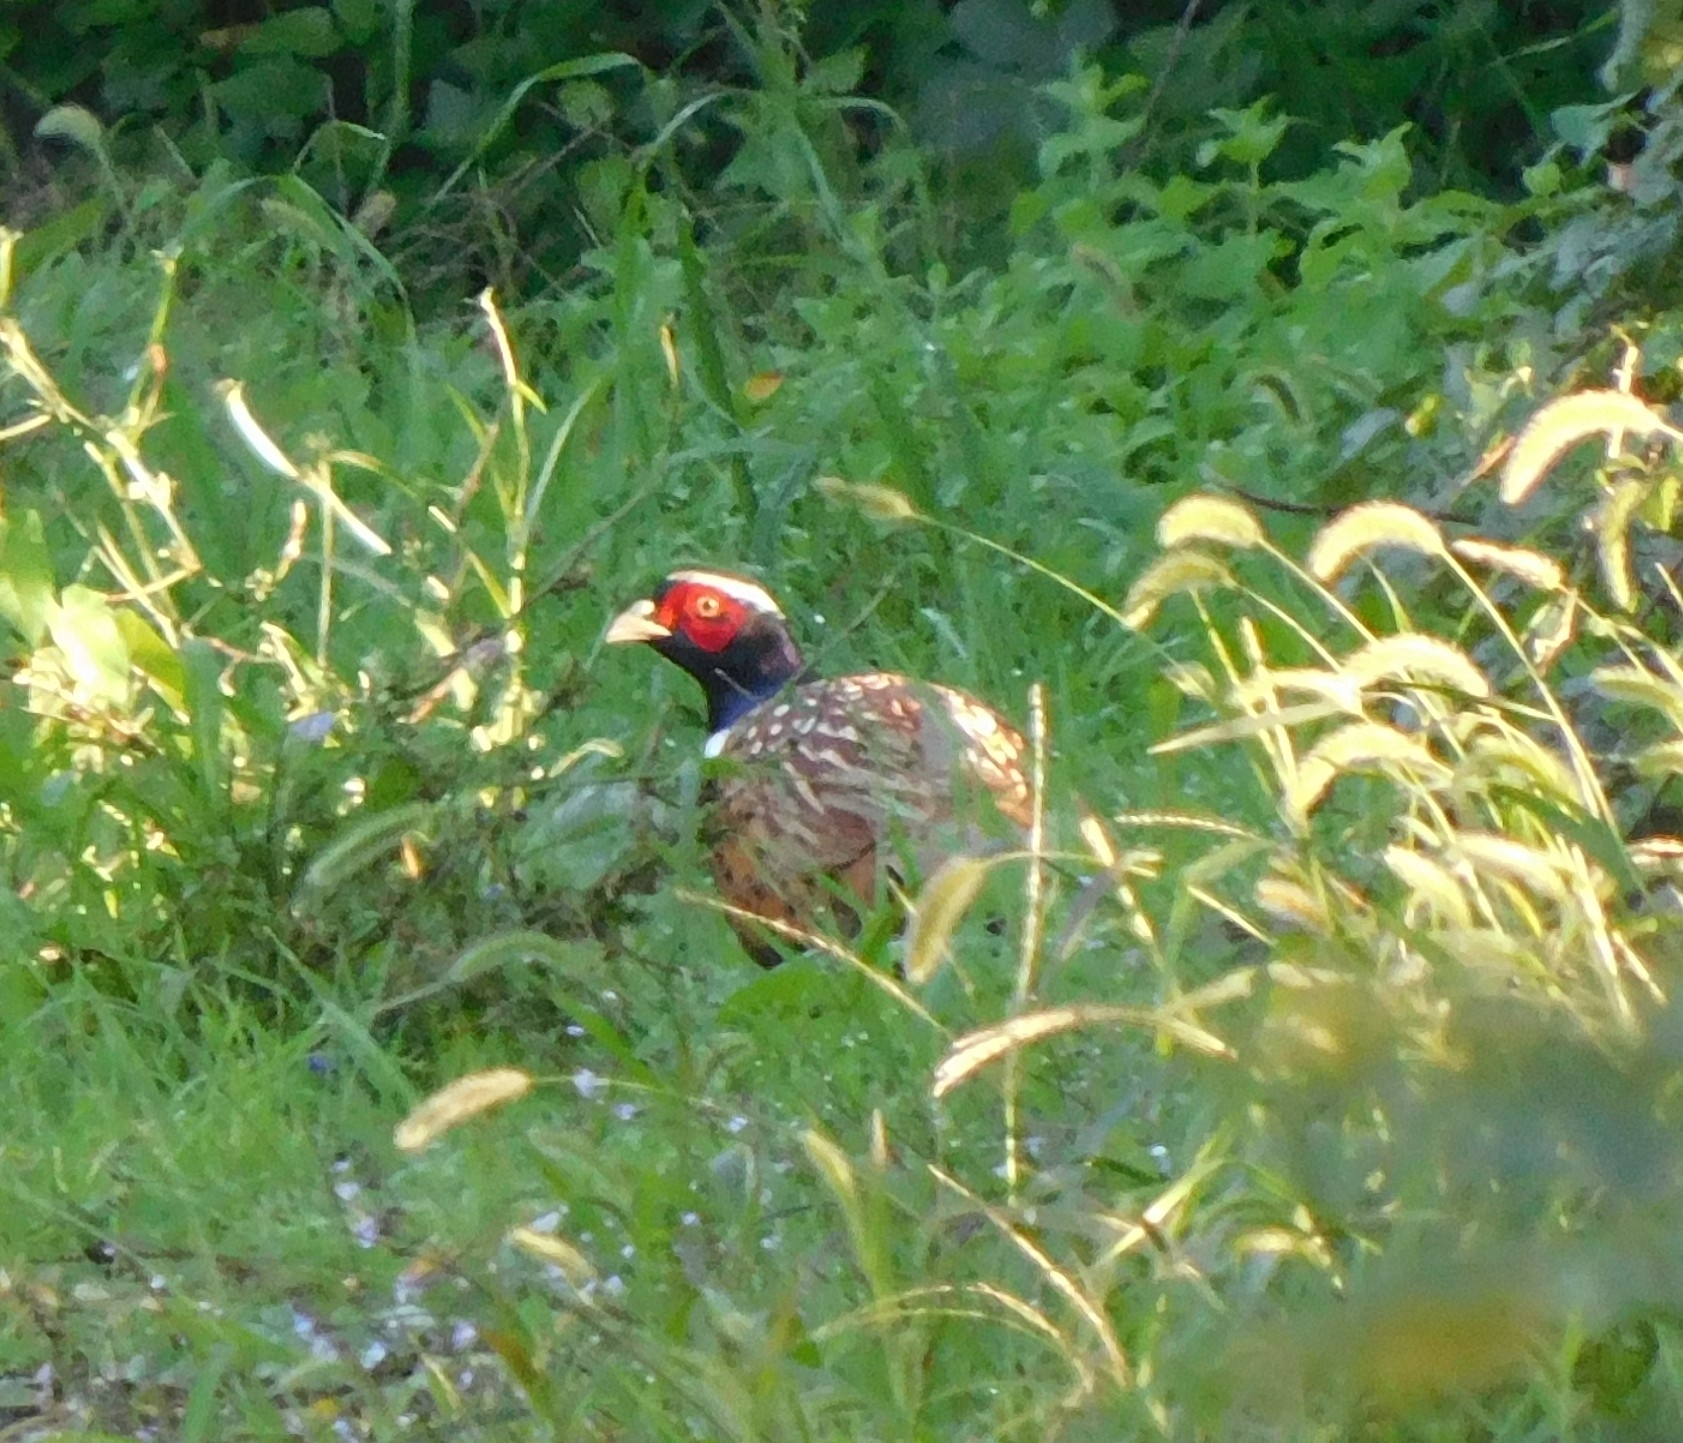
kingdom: Animalia
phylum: Chordata
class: Aves
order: Galliformes
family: Phasianidae
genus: Phasianus
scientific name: Phasianus colchicus
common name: Common pheasant
